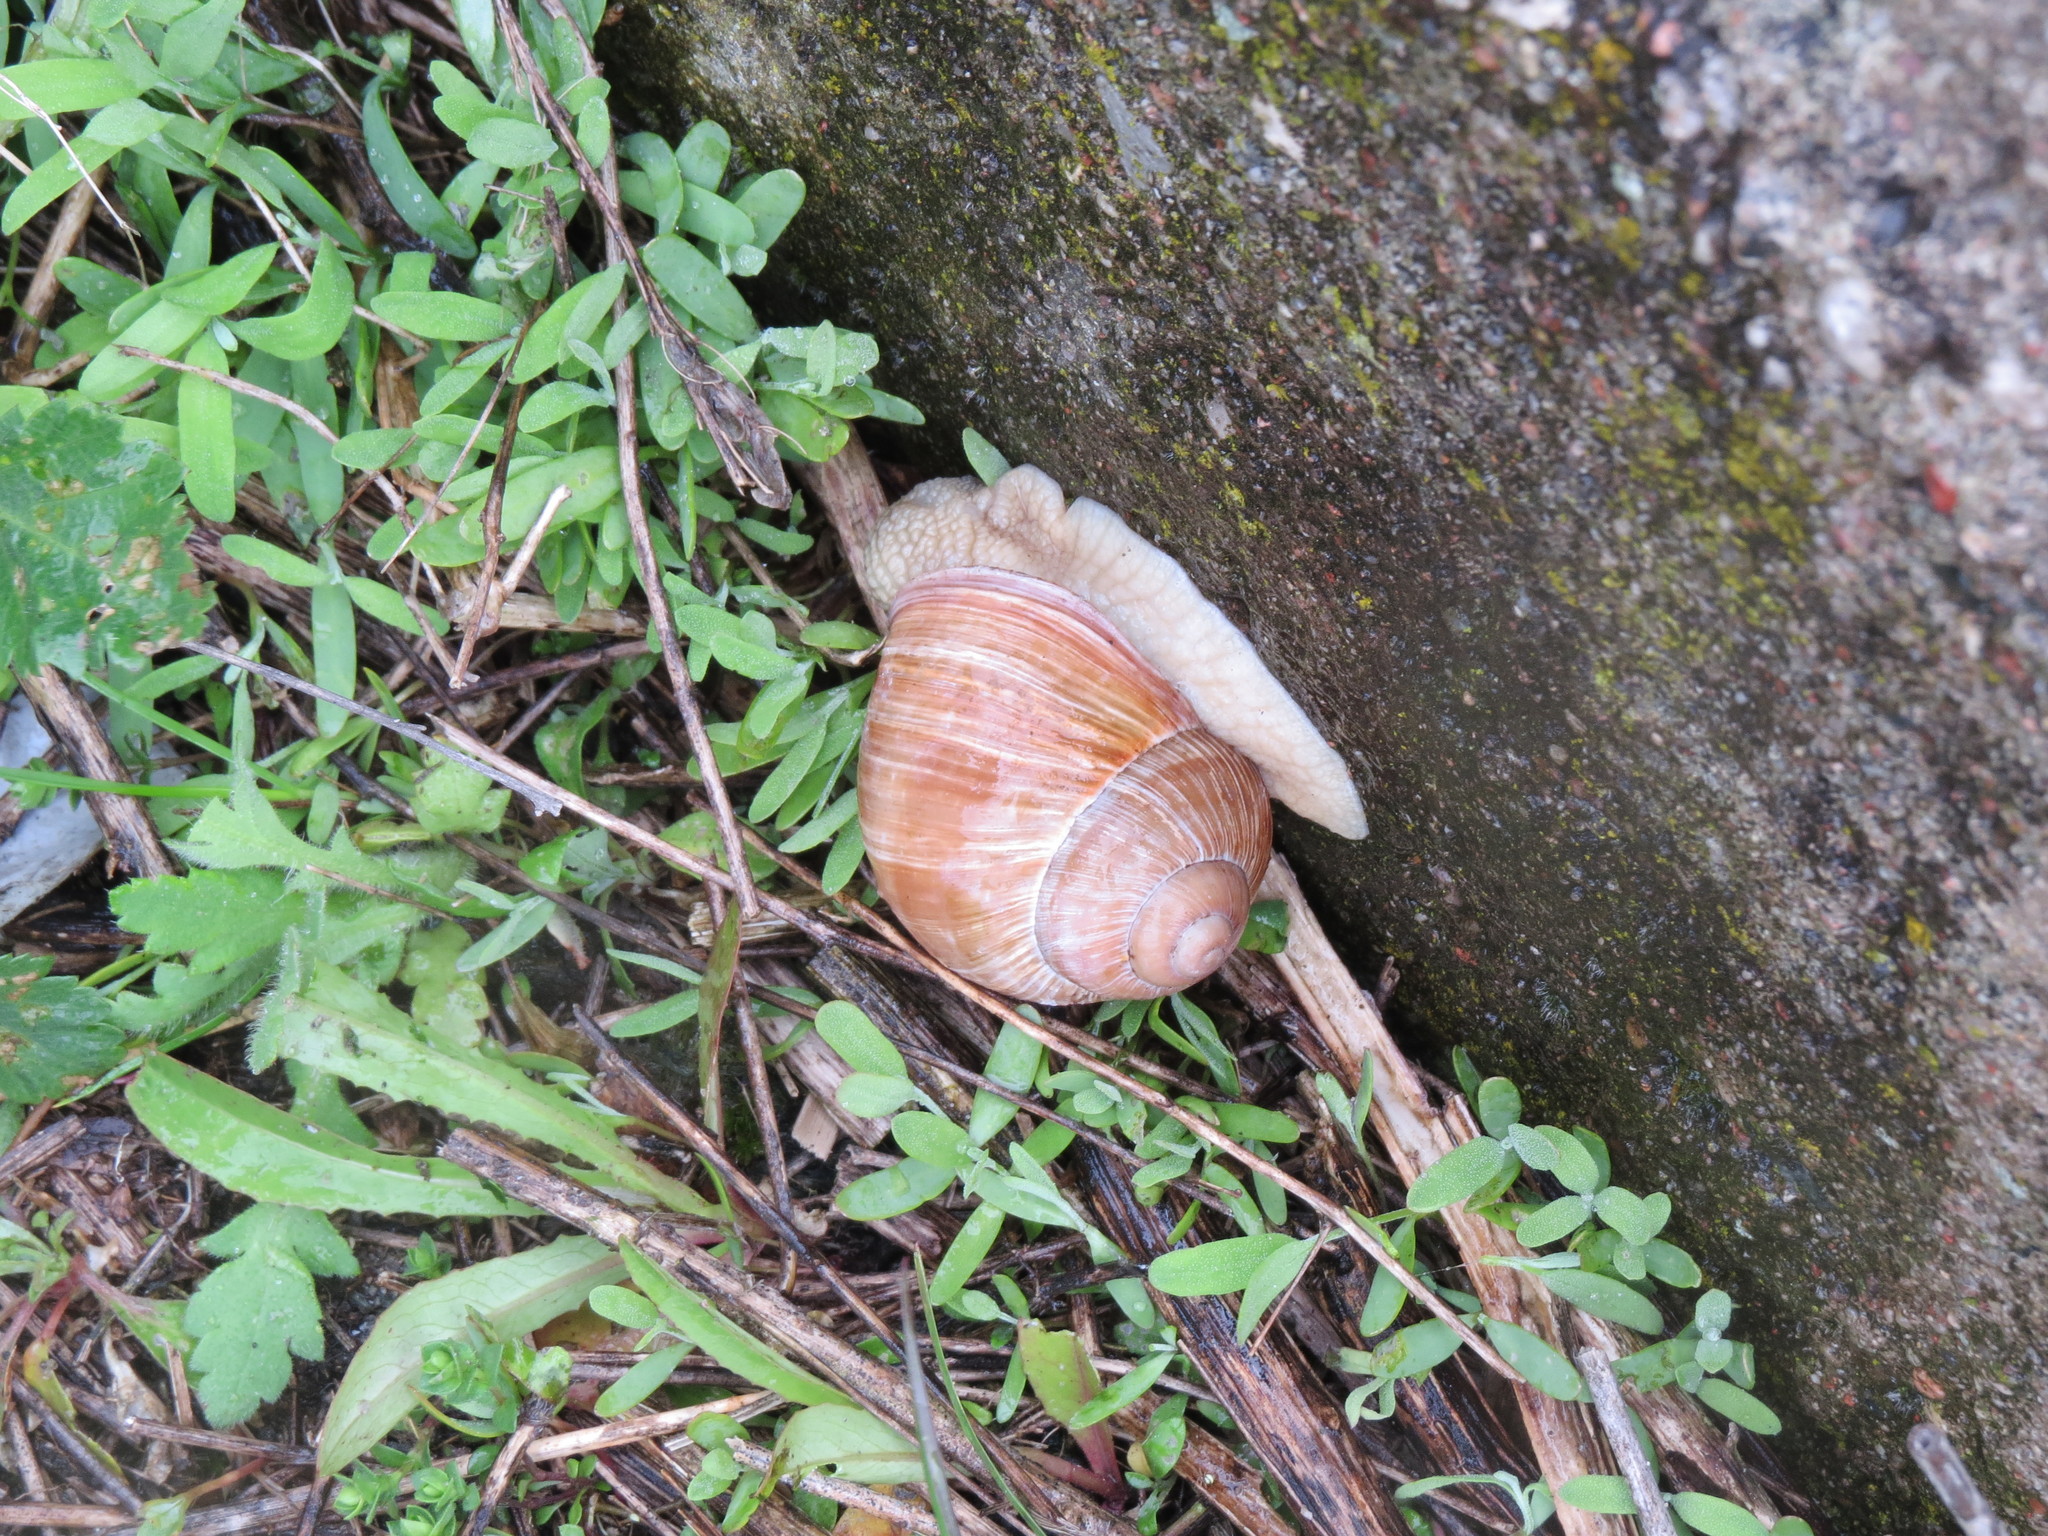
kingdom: Animalia
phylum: Mollusca
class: Gastropoda
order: Stylommatophora
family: Helicidae
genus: Helix
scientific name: Helix pomatia
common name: Roman snail
